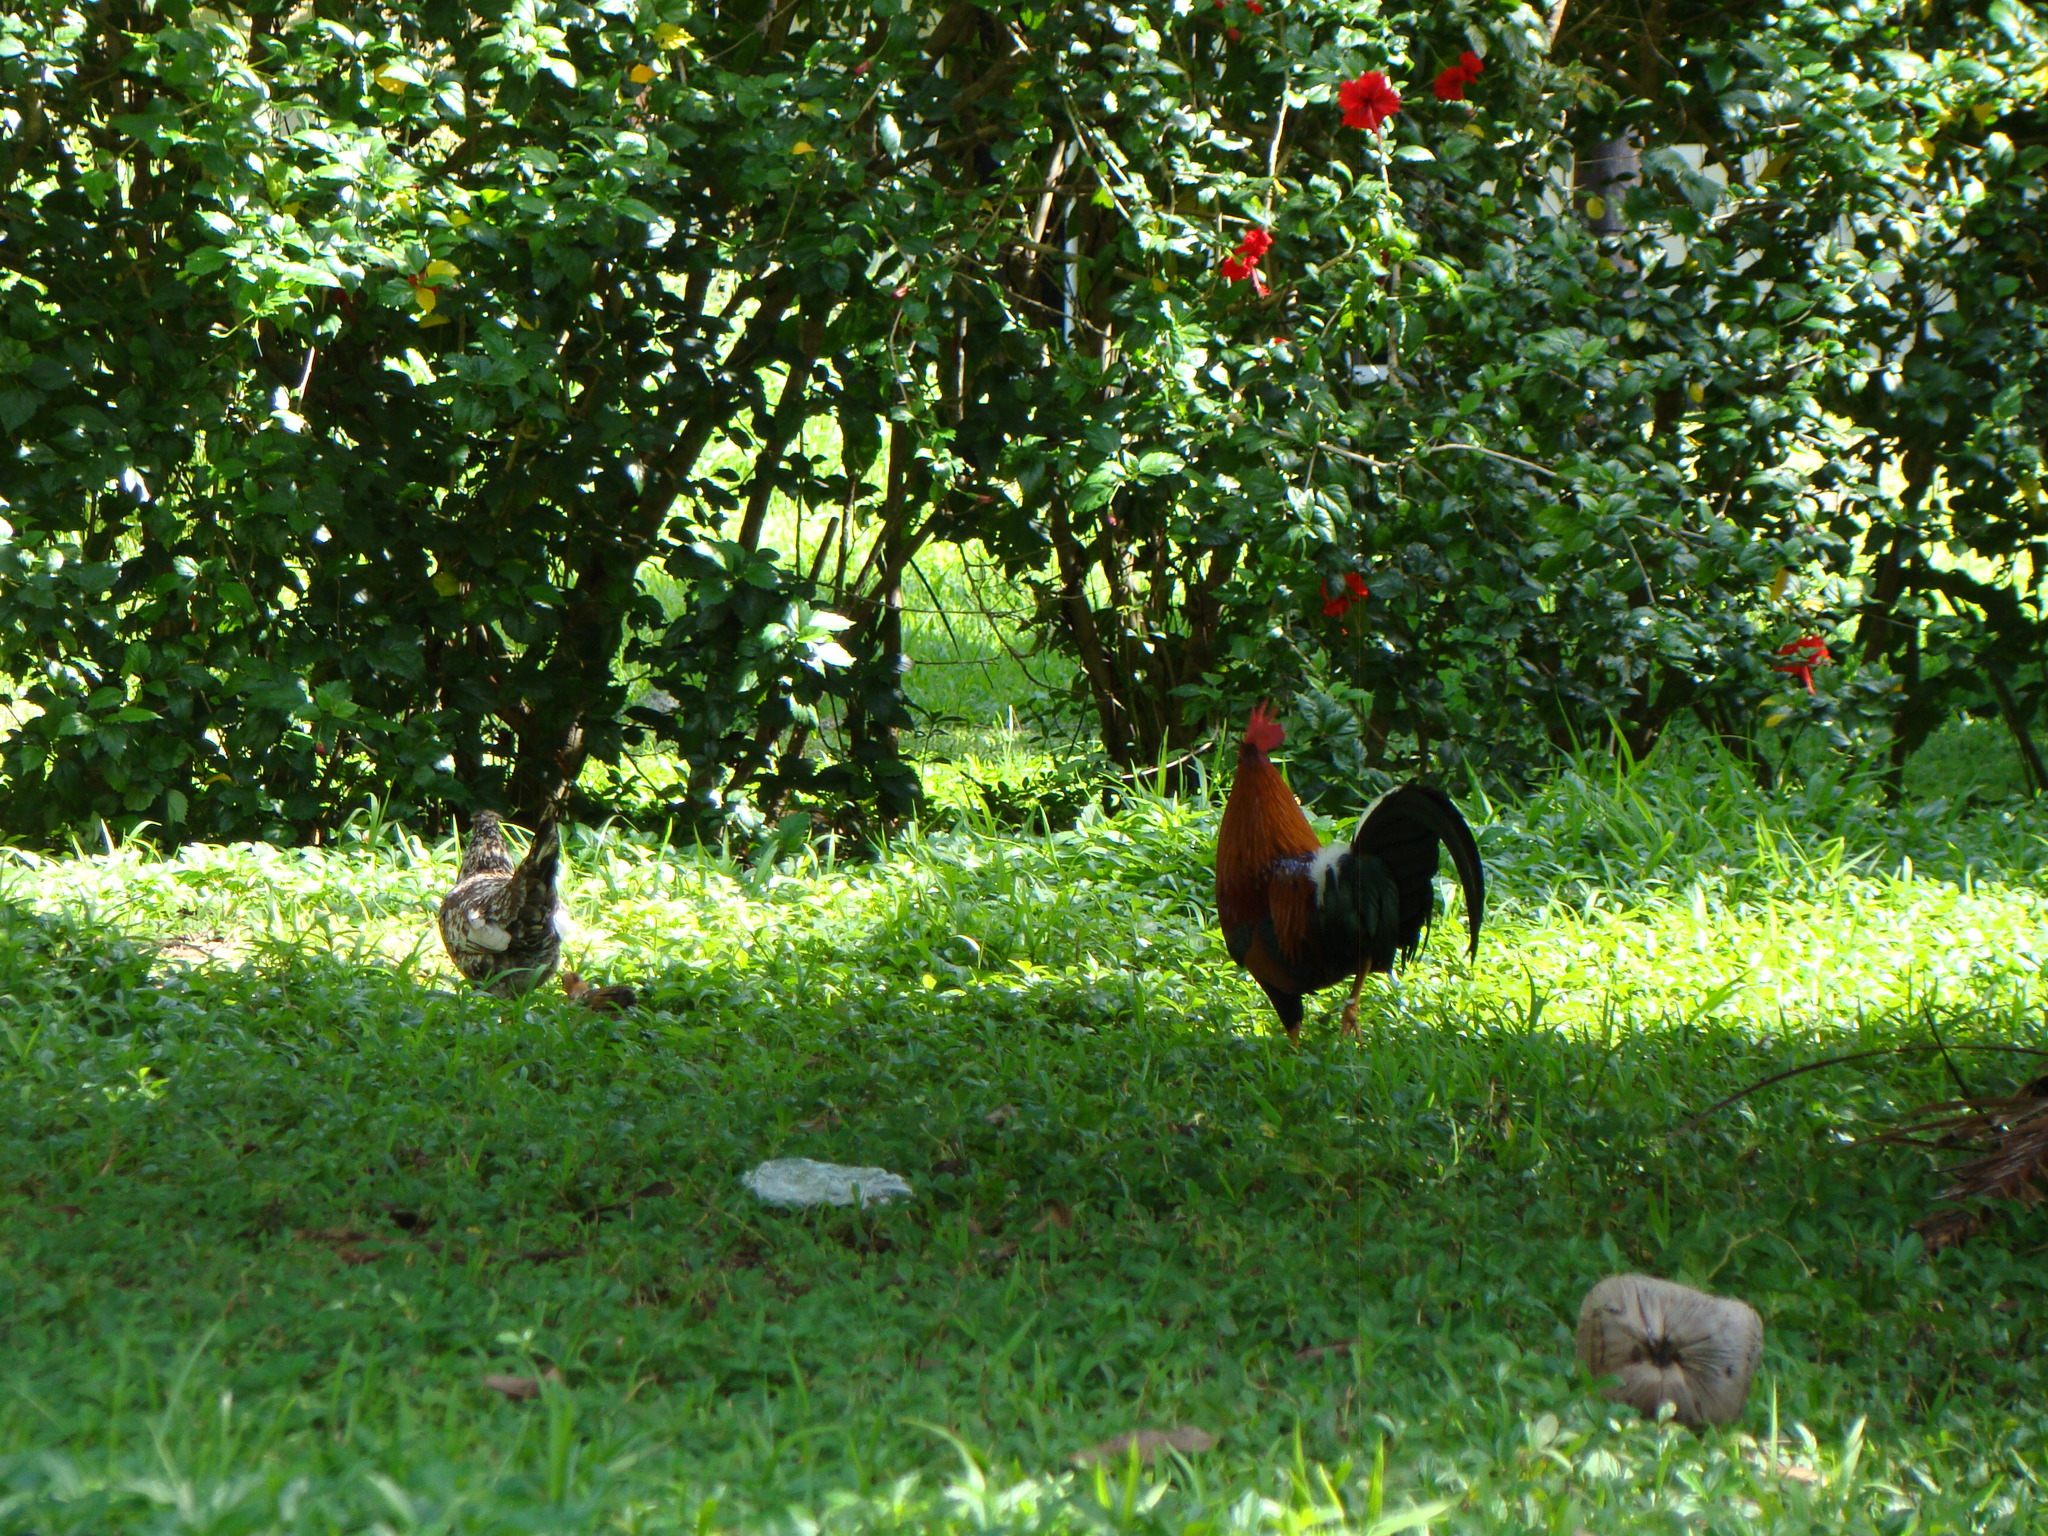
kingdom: Animalia
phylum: Chordata
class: Aves
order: Galliformes
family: Phasianidae
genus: Gallus
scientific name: Gallus gallus
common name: Red junglefowl
